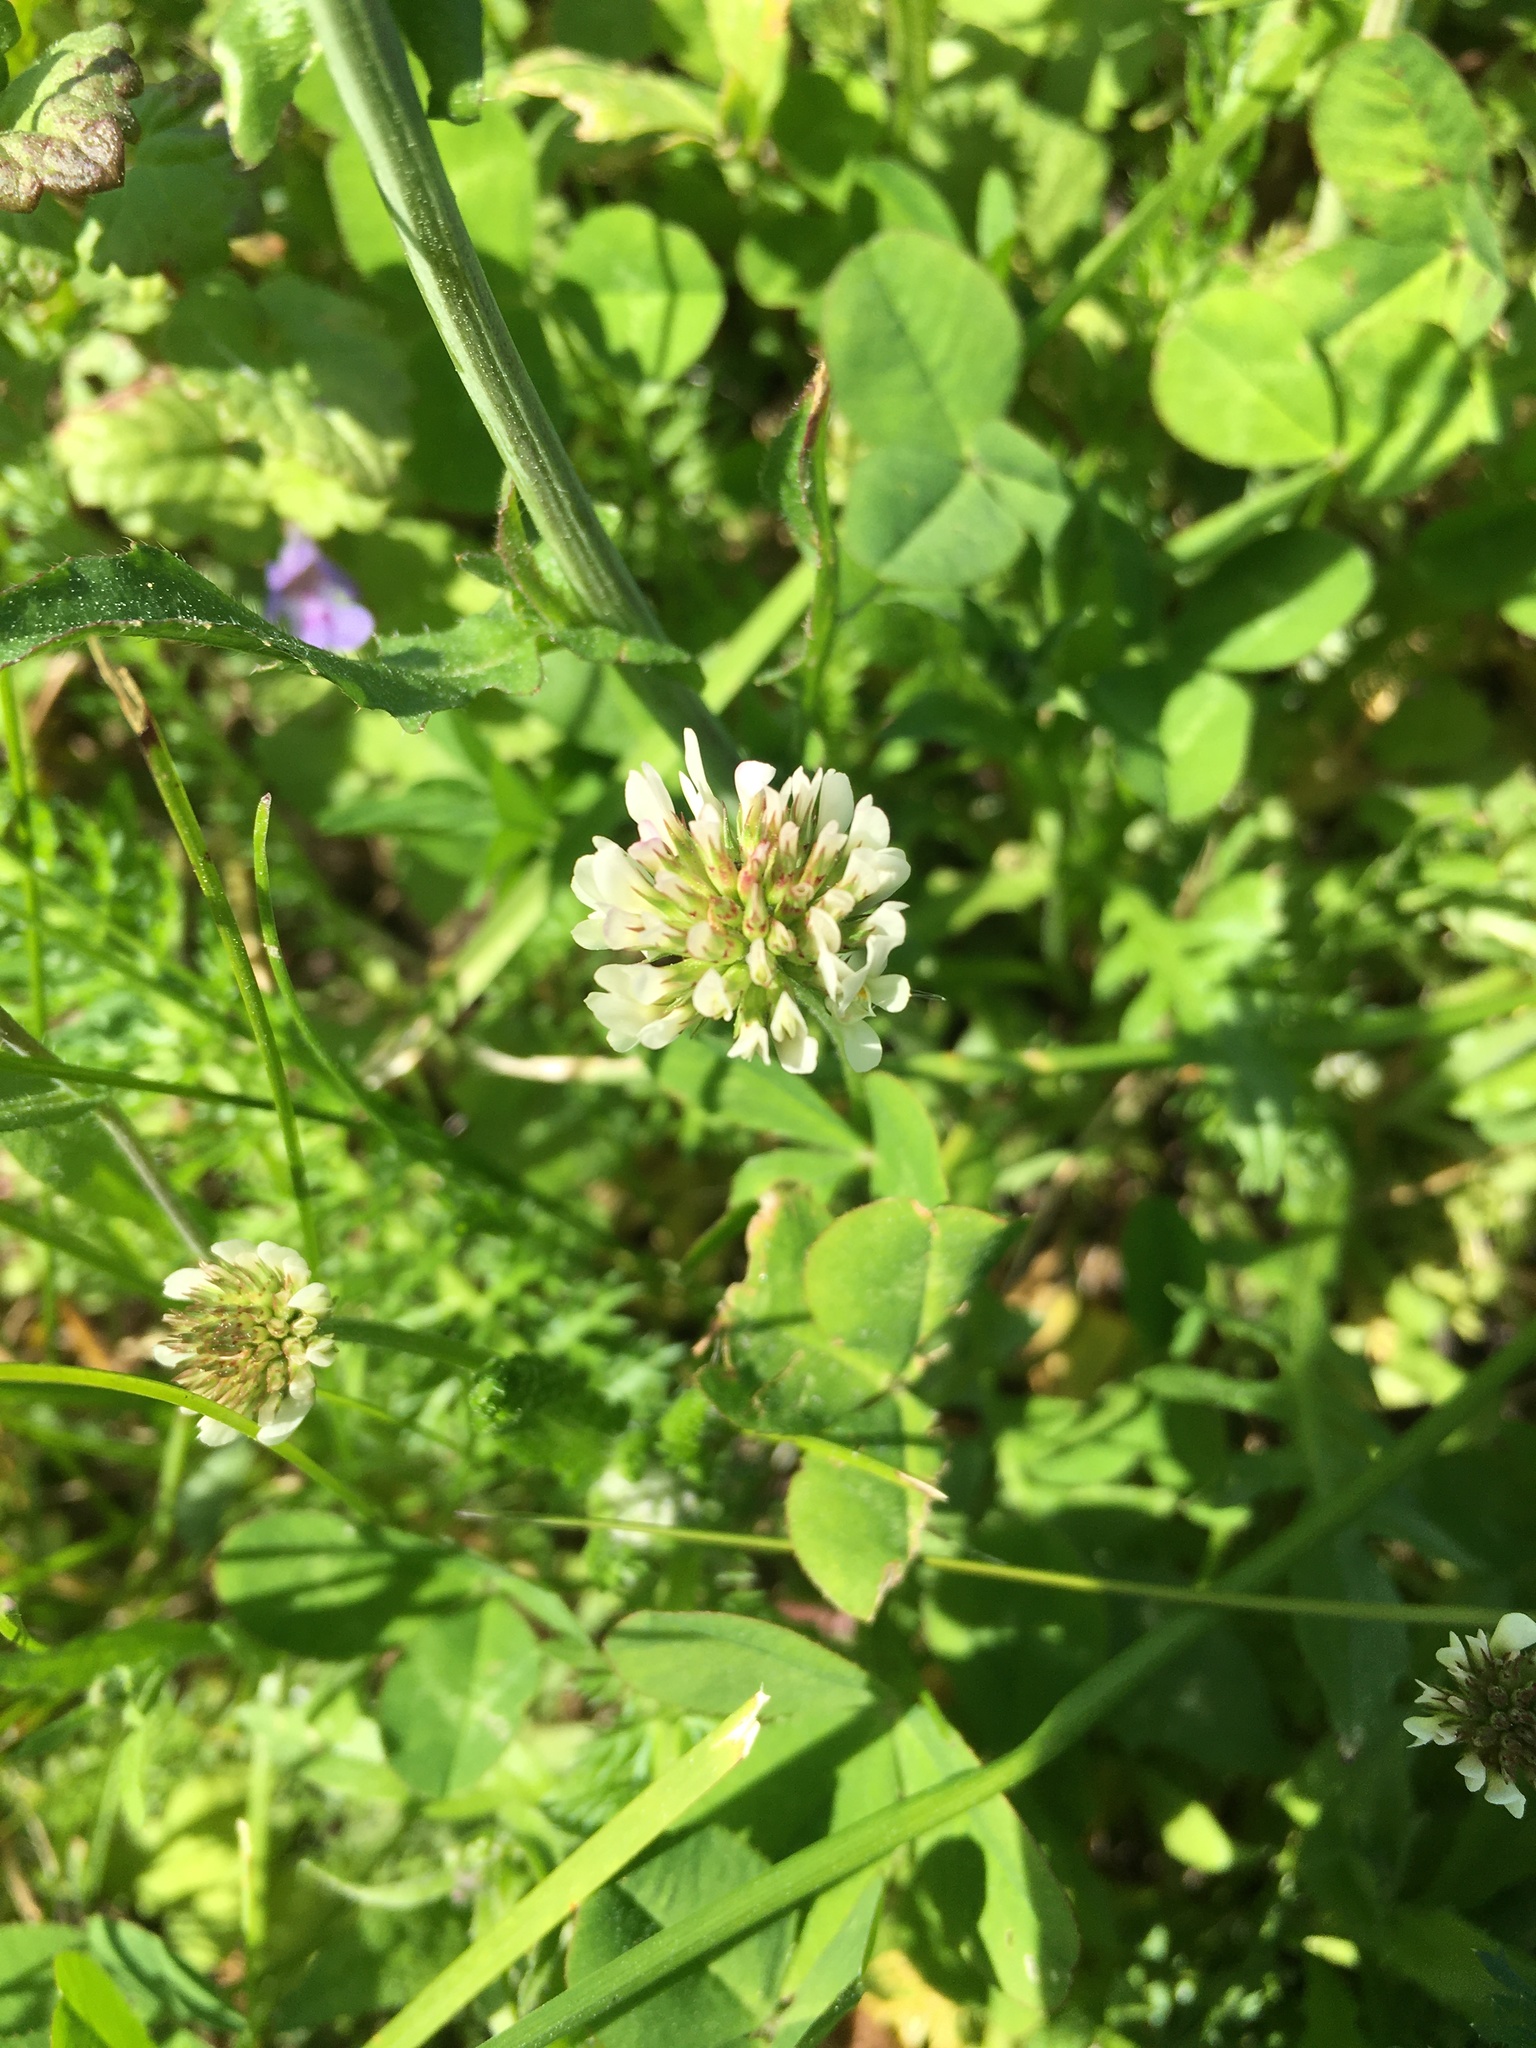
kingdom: Plantae
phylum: Tracheophyta
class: Magnoliopsida
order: Fabales
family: Fabaceae
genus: Trifolium
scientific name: Trifolium repens
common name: White clover
